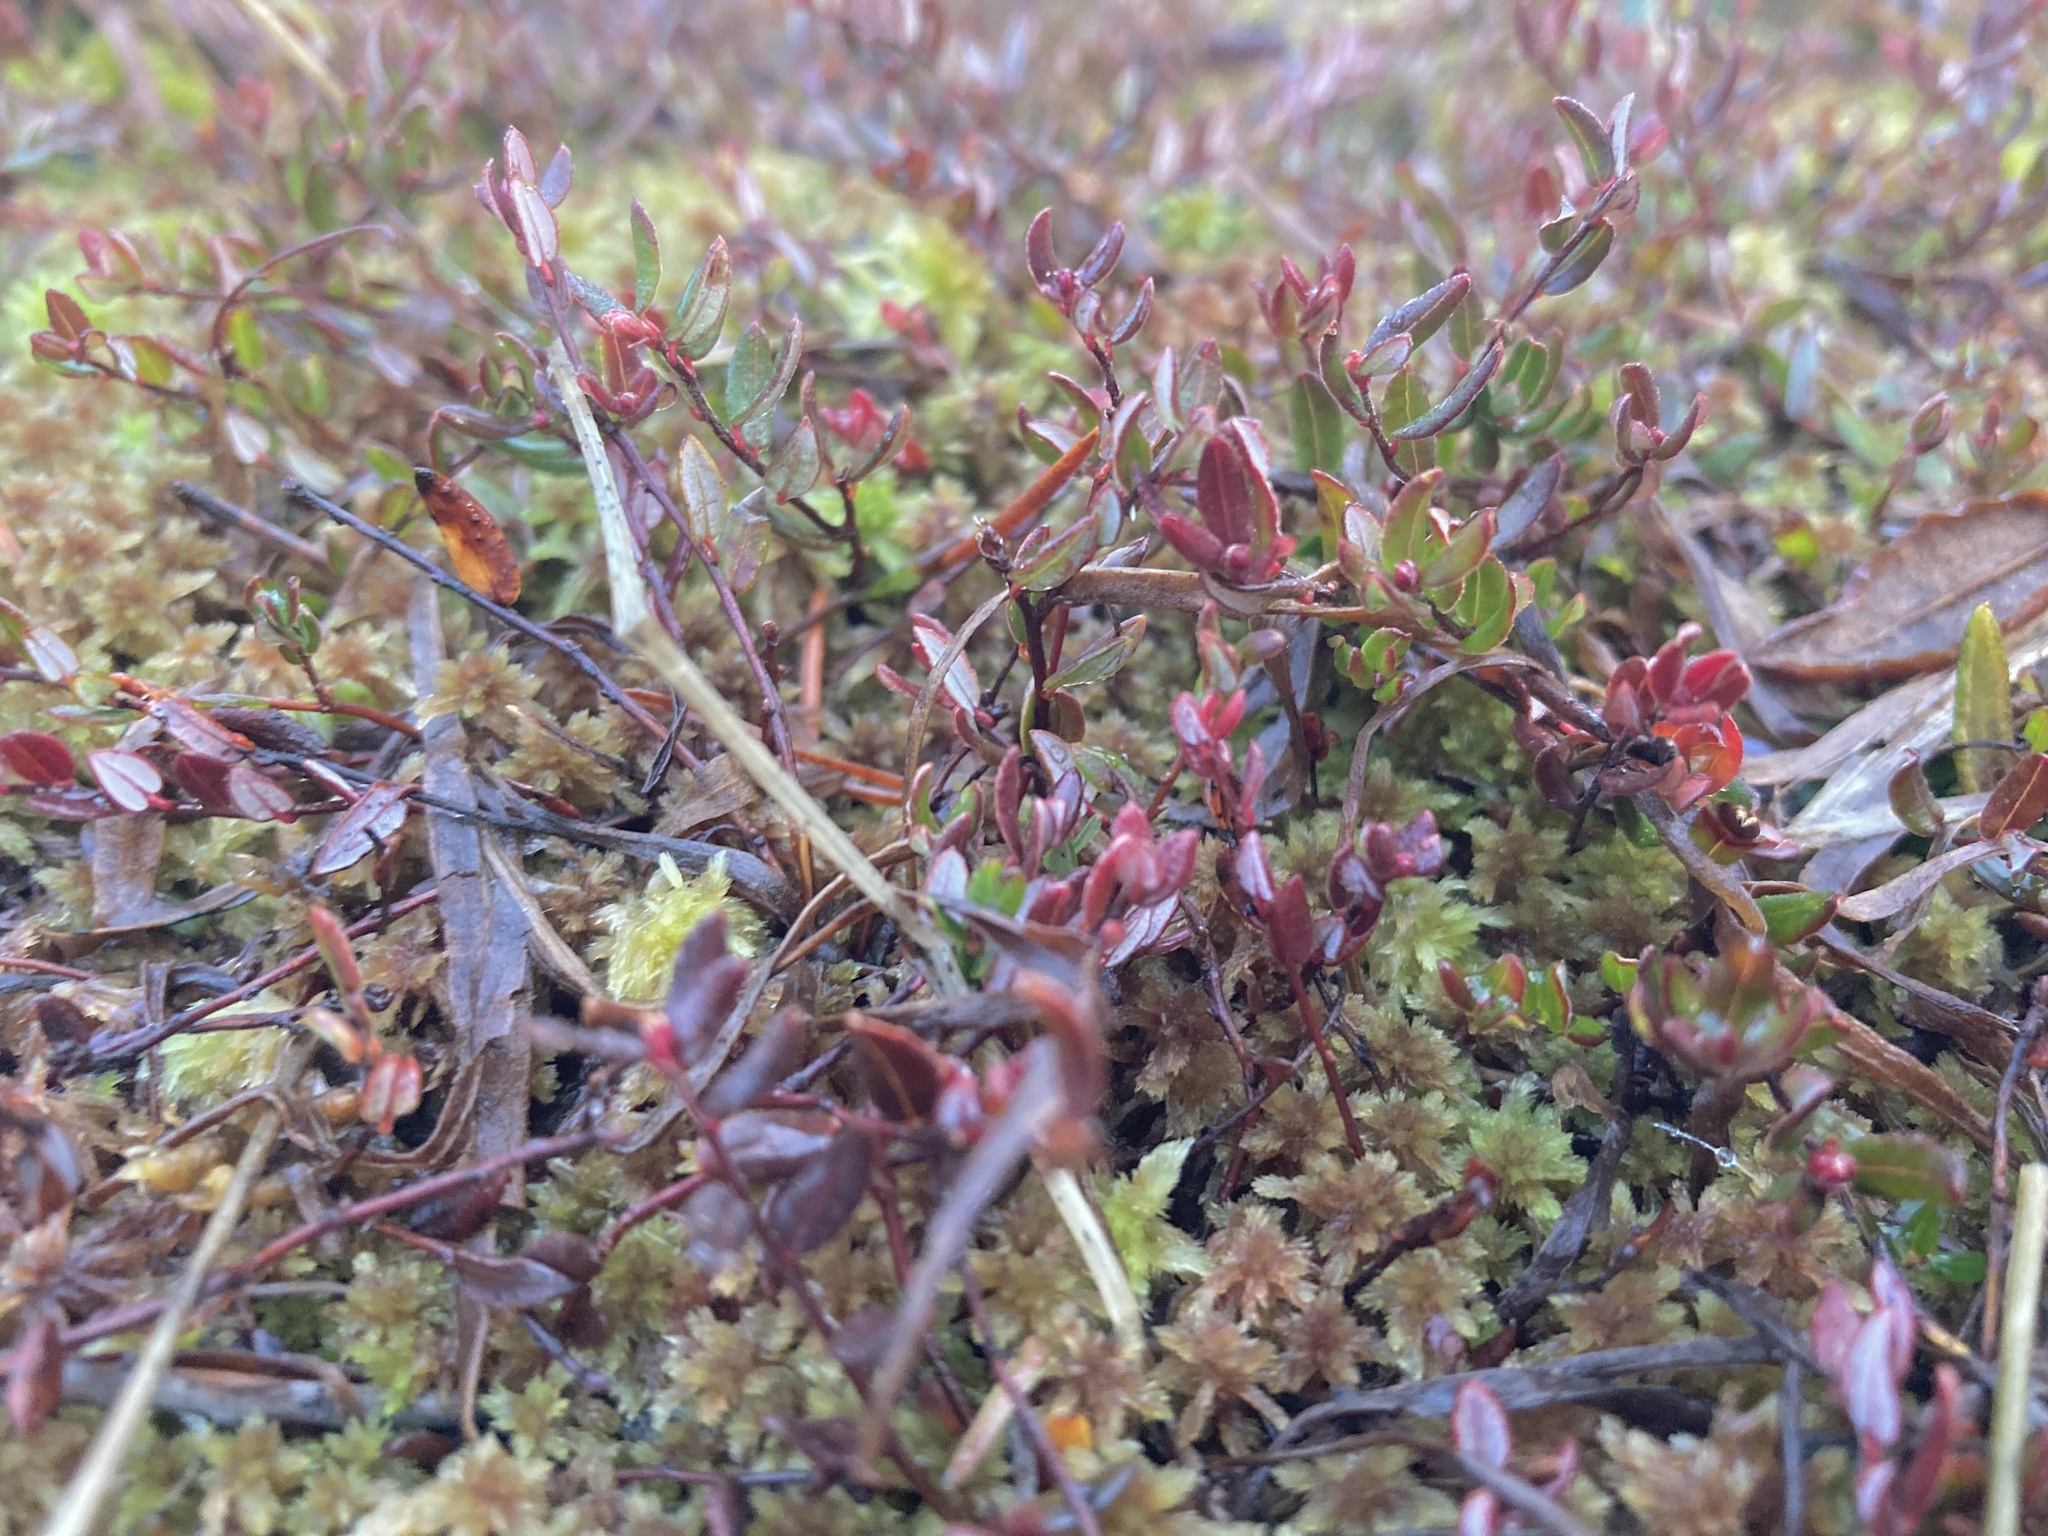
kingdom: Plantae
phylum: Tracheophyta
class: Magnoliopsida
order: Ericales
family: Ericaceae
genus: Vaccinium
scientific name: Vaccinium oxycoccos
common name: Cranberry
